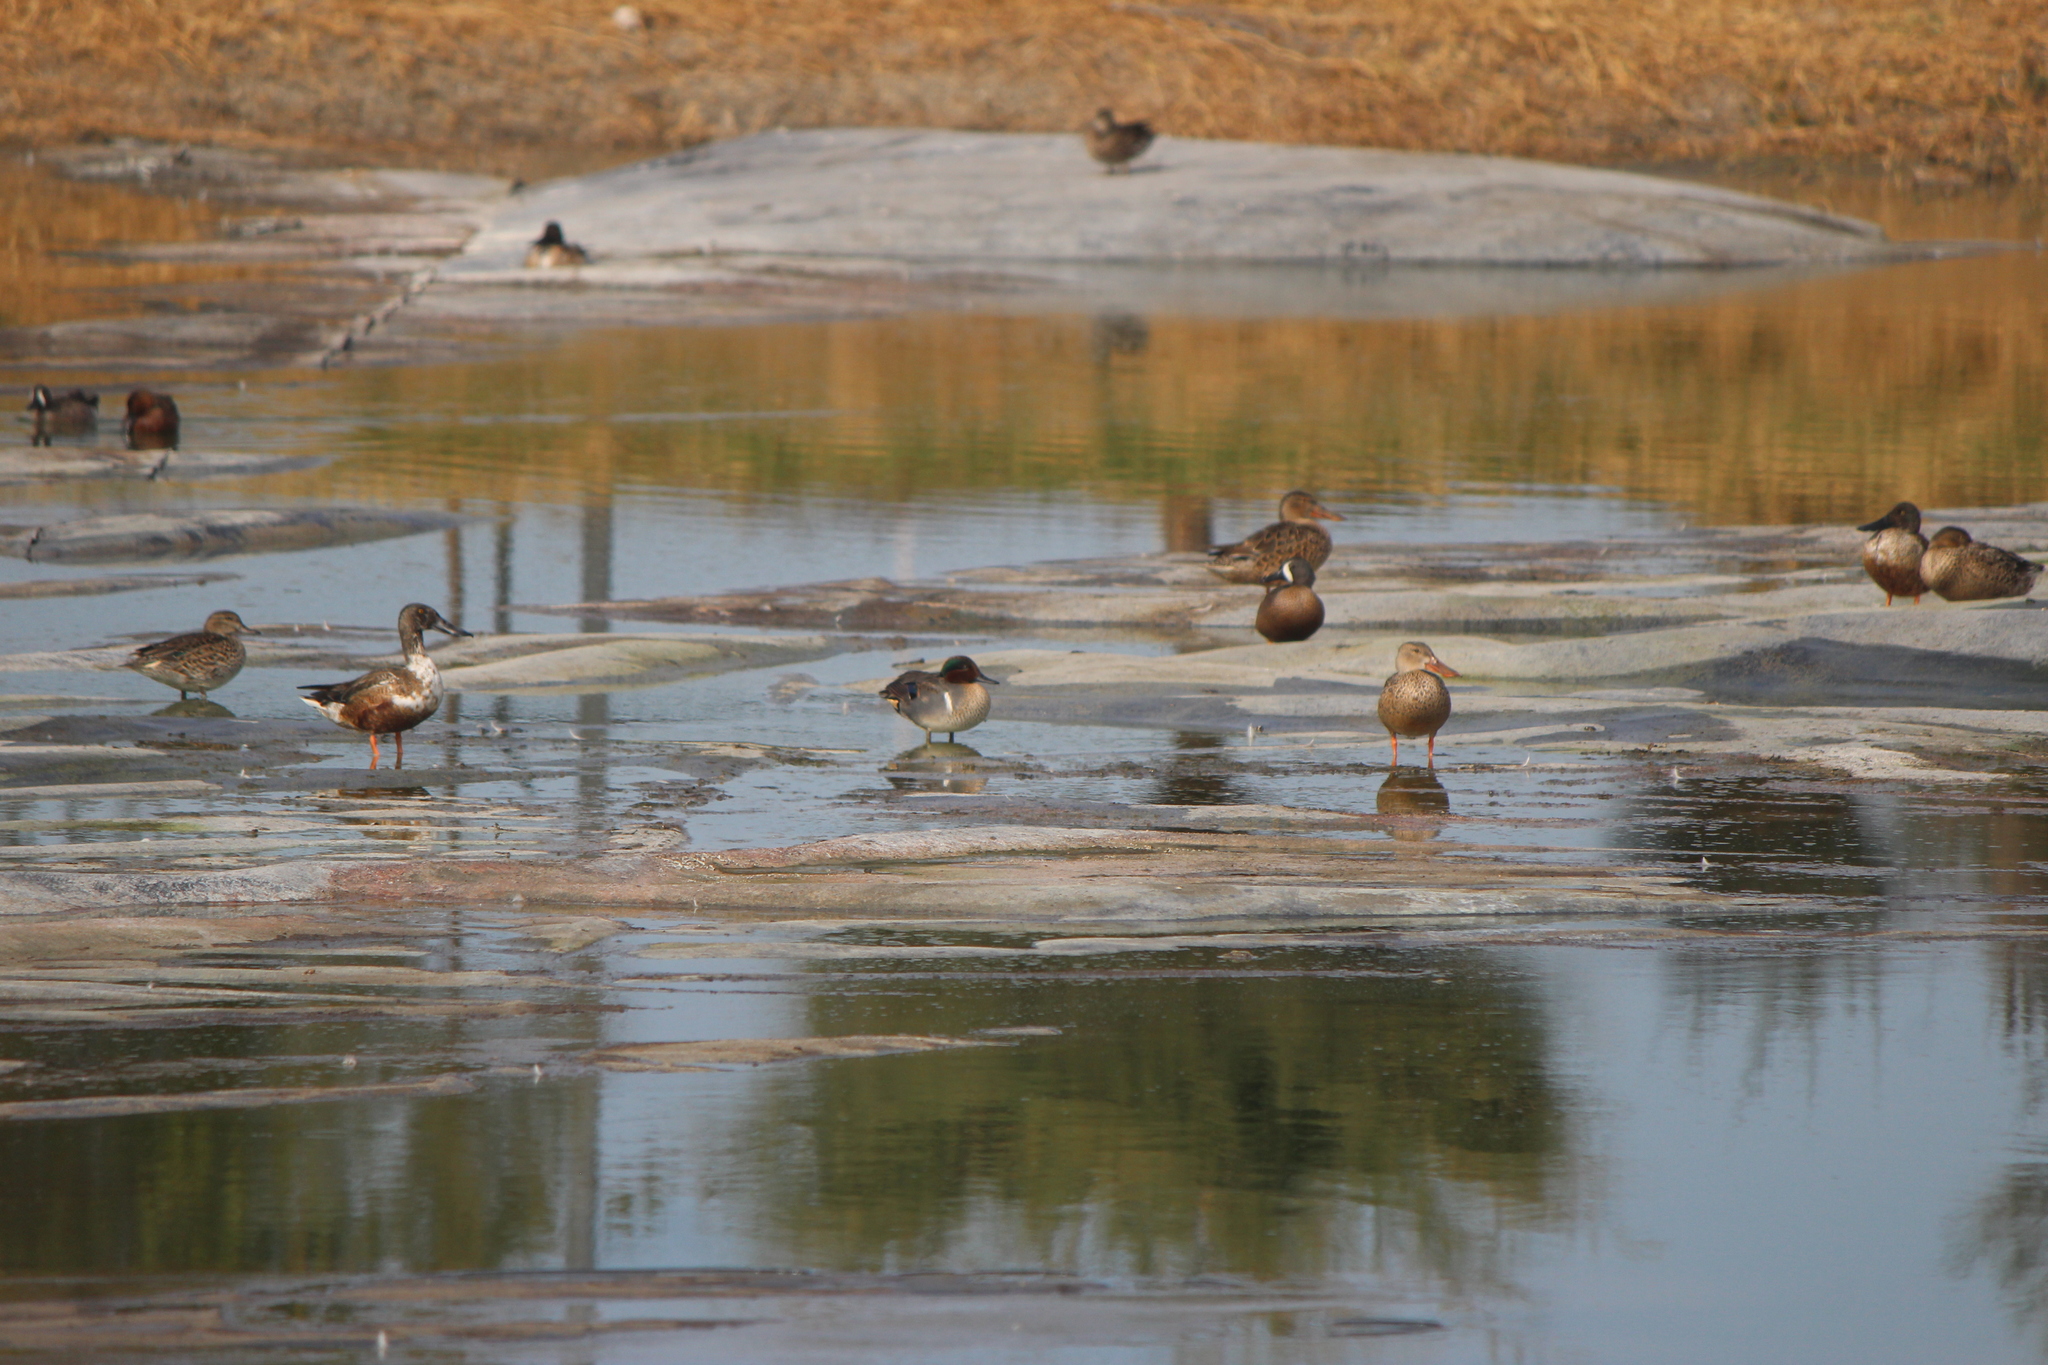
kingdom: Animalia
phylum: Chordata
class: Aves
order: Anseriformes
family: Anatidae
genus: Anas
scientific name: Anas crecca
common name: Eurasian teal
